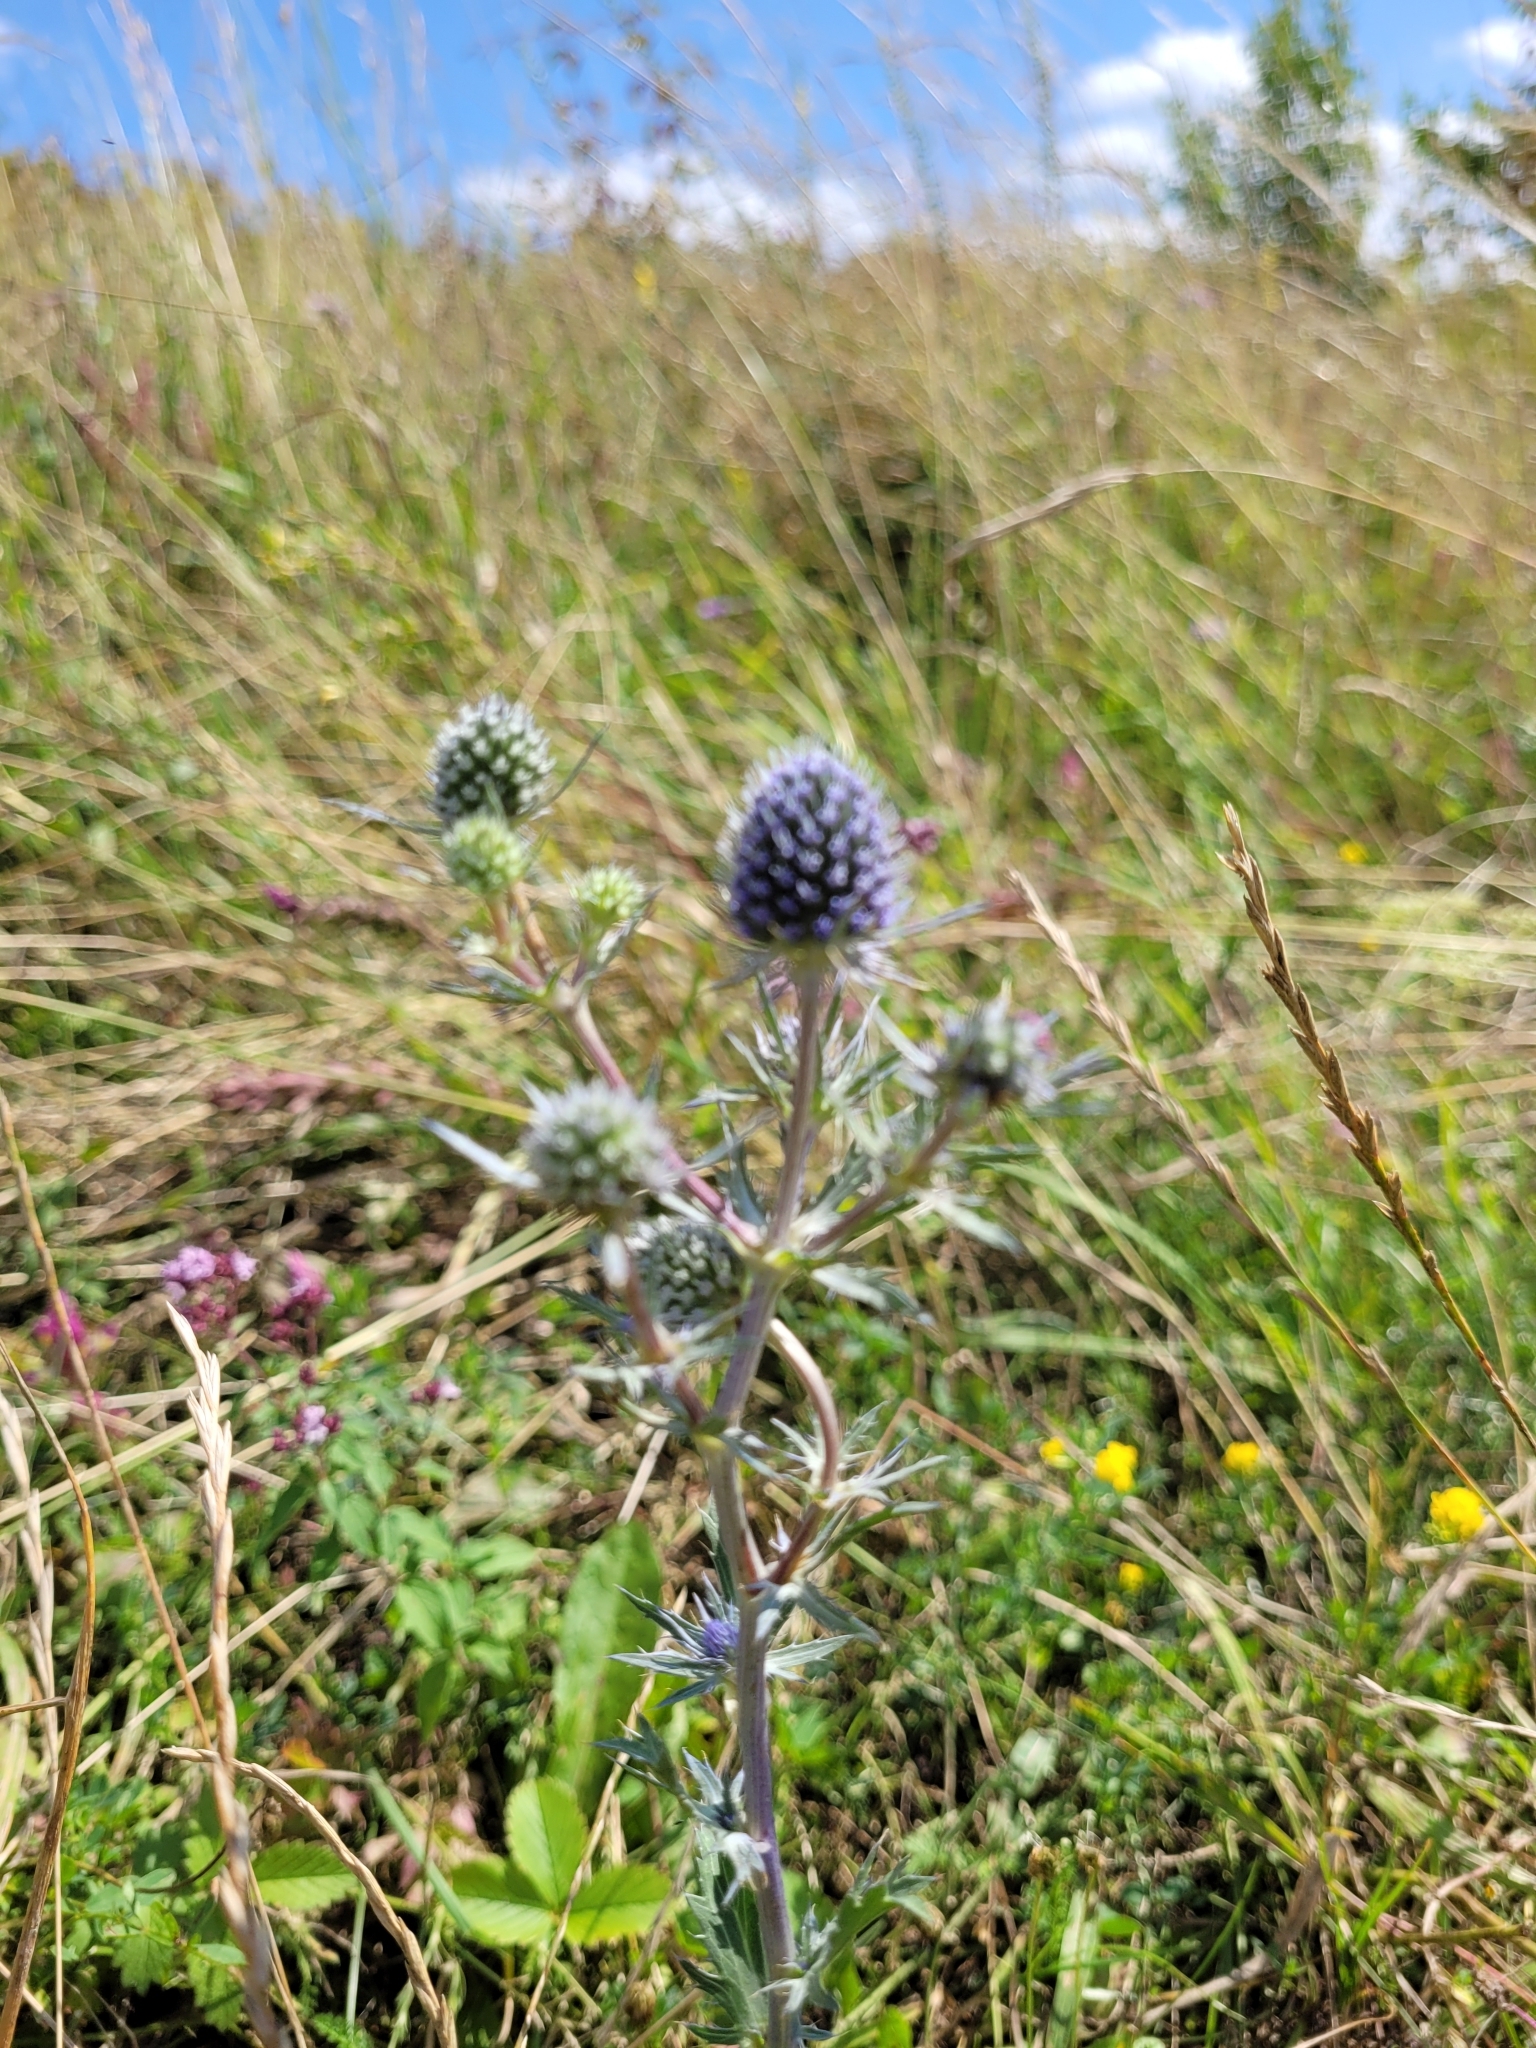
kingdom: Plantae
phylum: Tracheophyta
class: Magnoliopsida
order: Apiales
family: Apiaceae
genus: Eryngium
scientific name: Eryngium planum
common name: Blue eryngo
